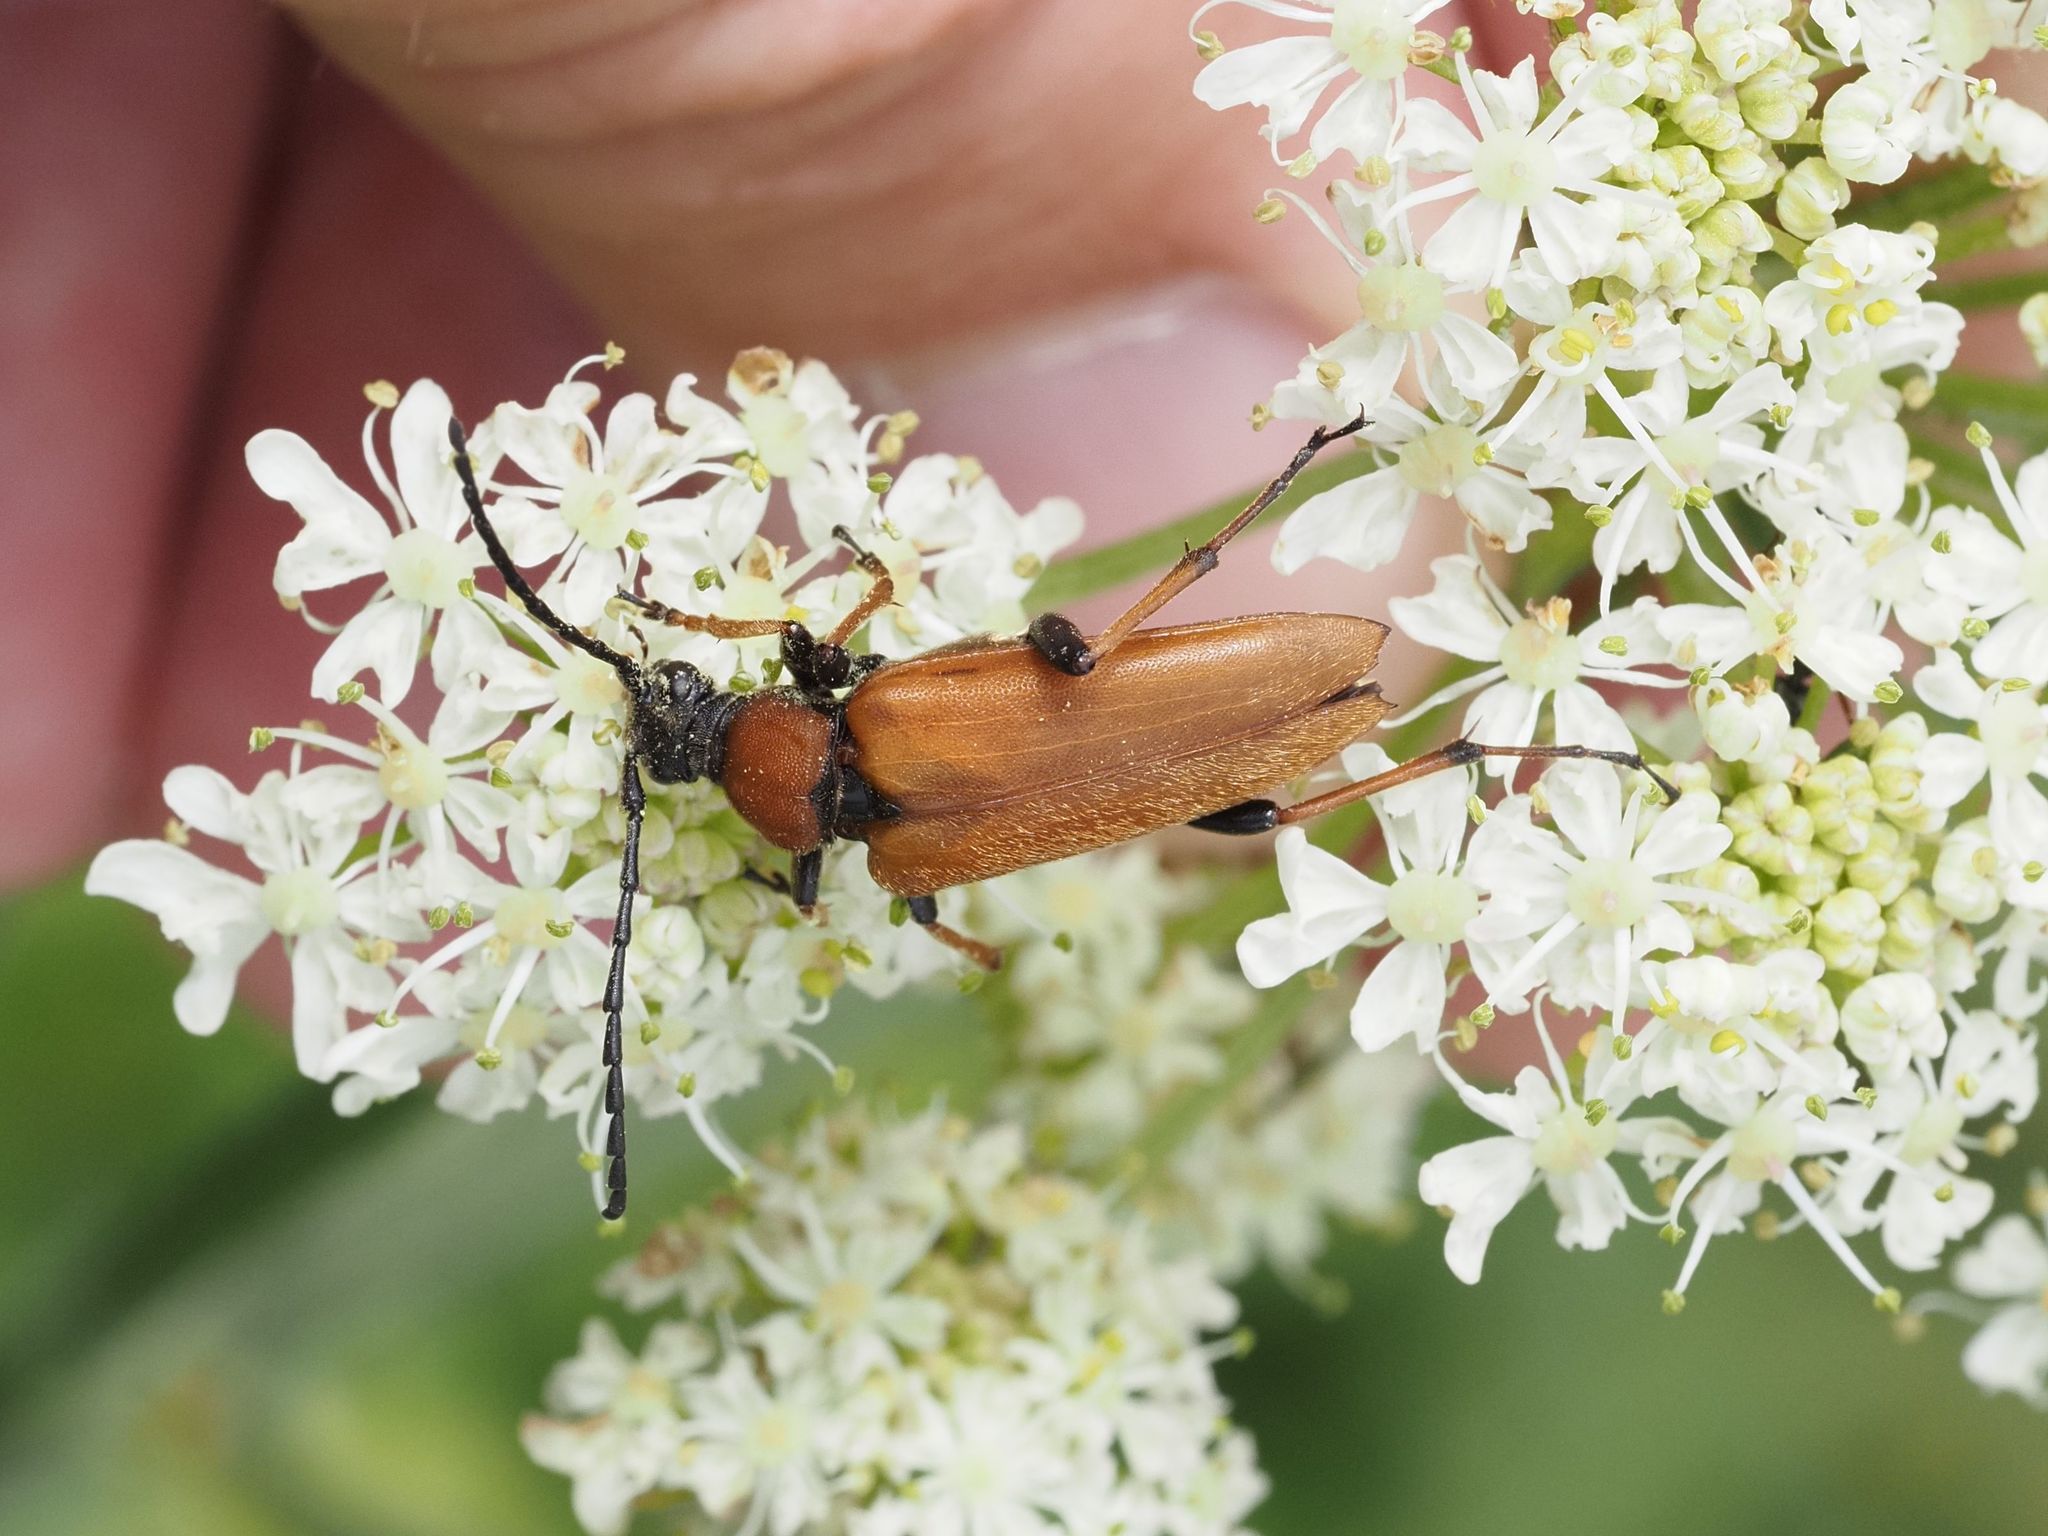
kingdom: Animalia
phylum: Arthropoda
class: Insecta
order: Coleoptera
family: Cerambycidae
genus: Stictoleptura
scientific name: Stictoleptura rubra
